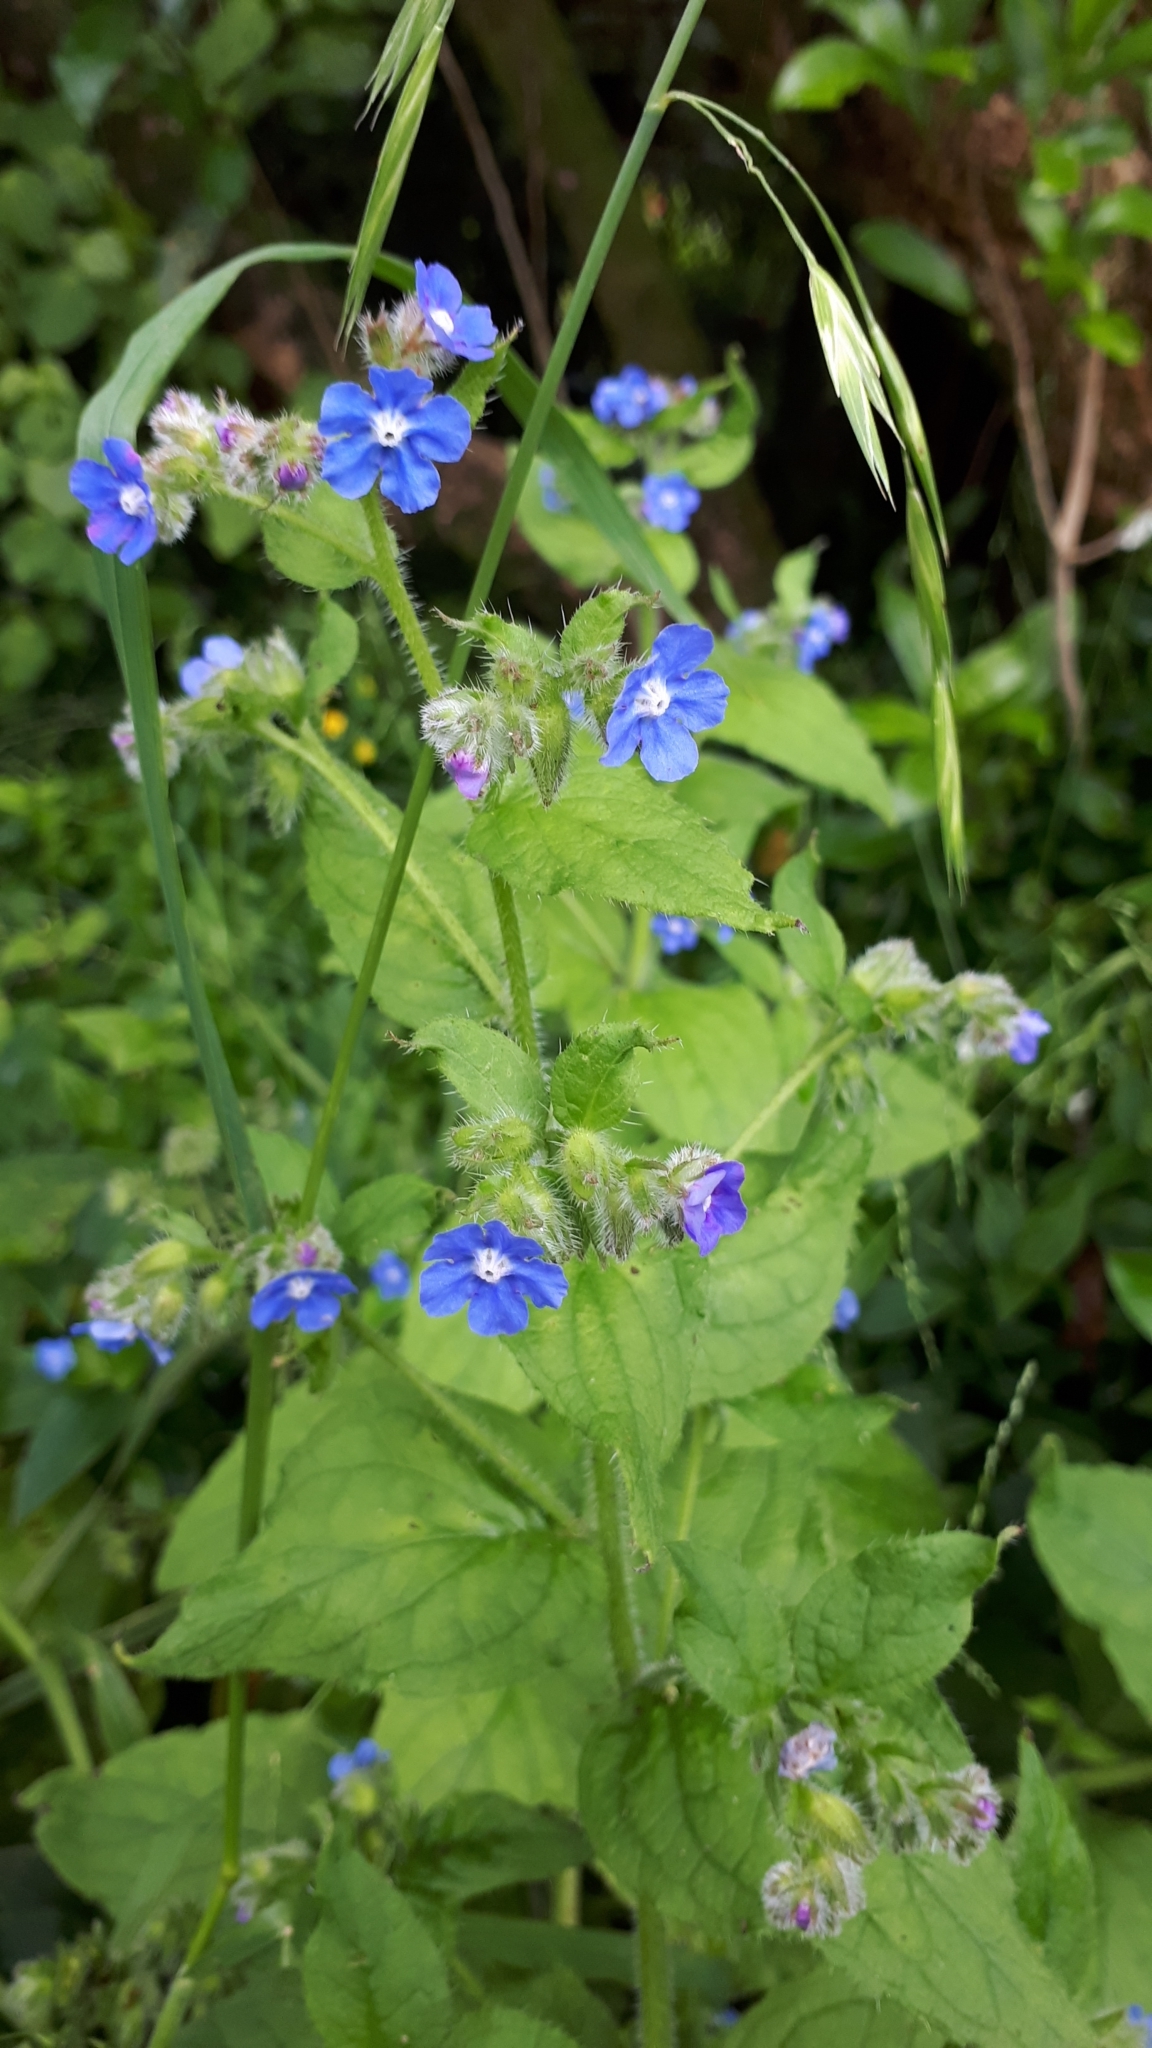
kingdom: Plantae
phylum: Tracheophyta
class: Magnoliopsida
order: Boraginales
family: Boraginaceae
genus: Pentaglottis
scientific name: Pentaglottis sempervirens
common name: Green alkanet
